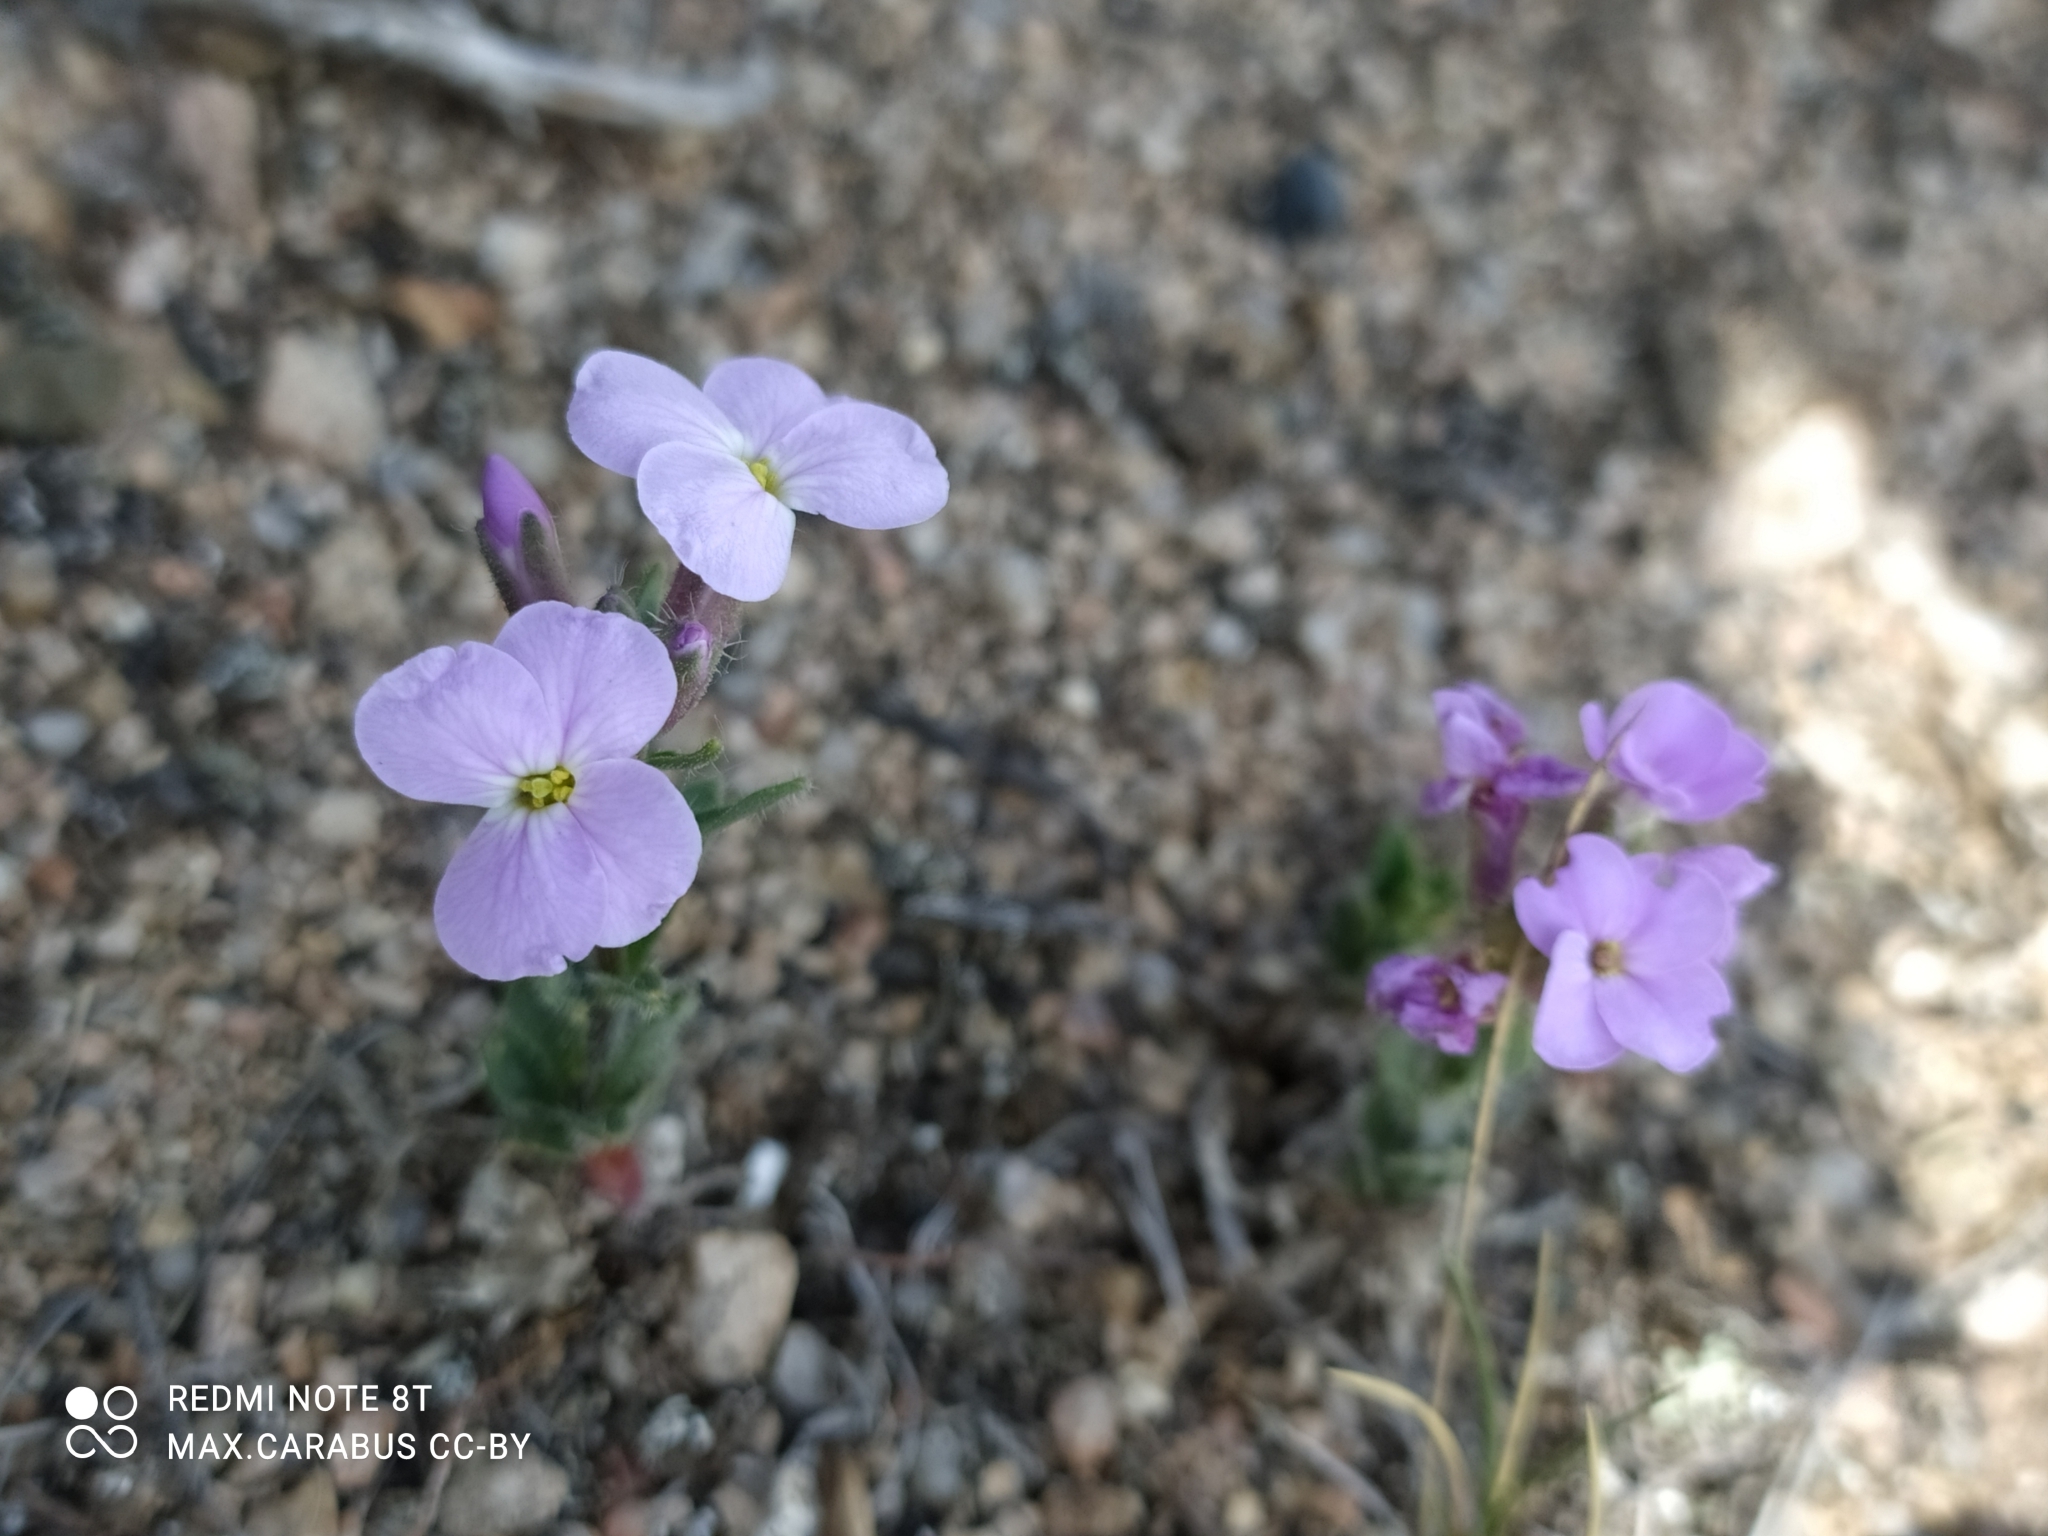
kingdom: Plantae
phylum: Tracheophyta
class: Magnoliopsida
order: Brassicales
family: Brassicaceae
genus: Clausia
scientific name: Clausia aprica
